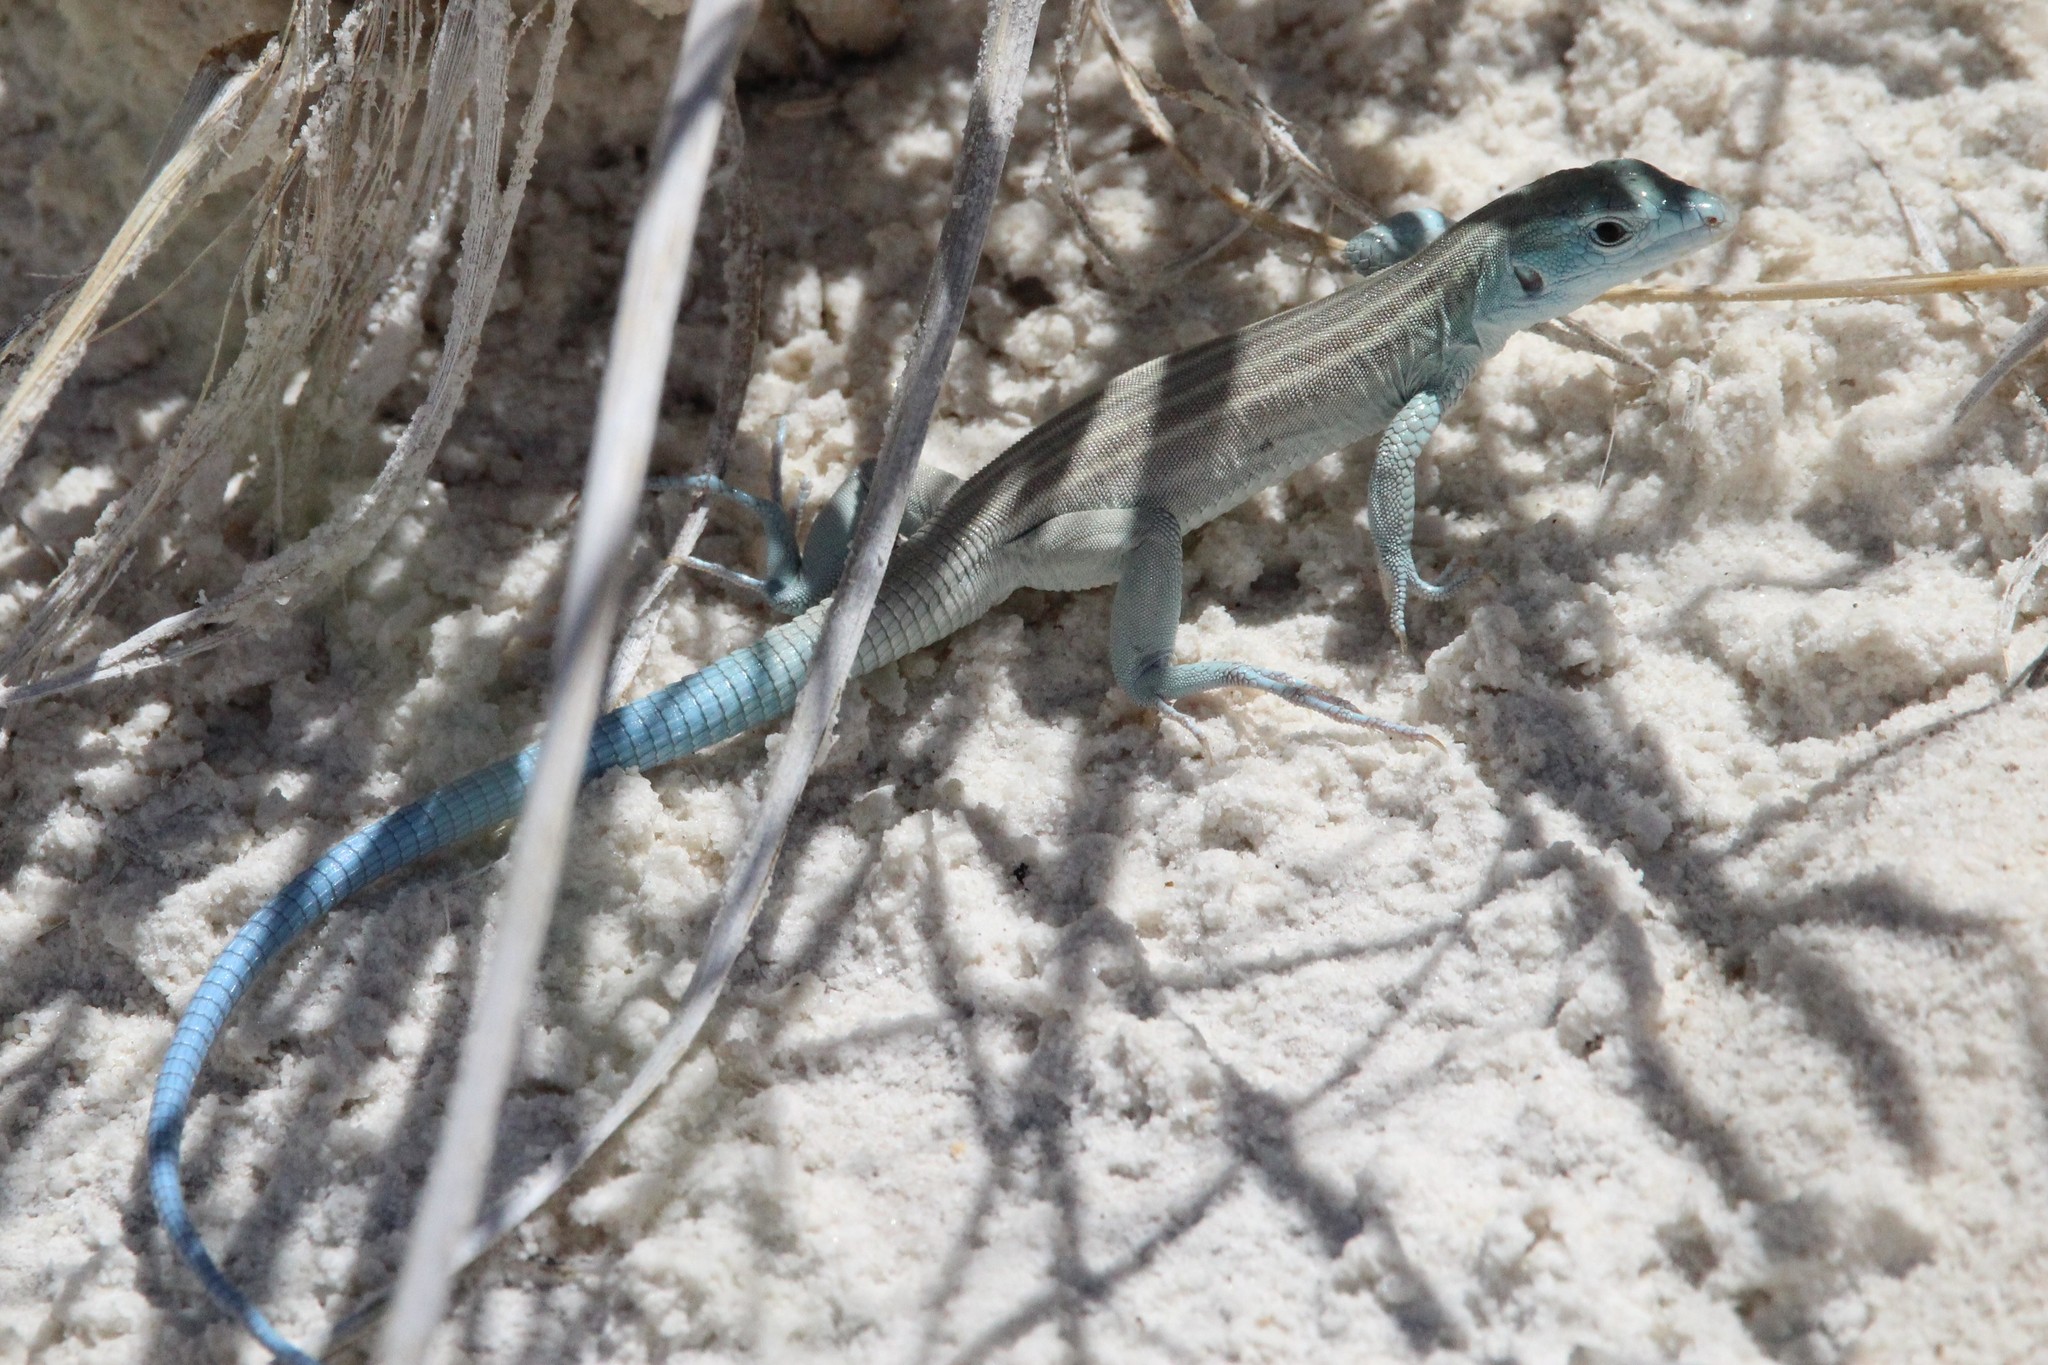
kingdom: Animalia
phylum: Chordata
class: Squamata
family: Teiidae
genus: Aspidoscelis
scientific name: Aspidoscelis inornatus
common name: Little striped whiptail
